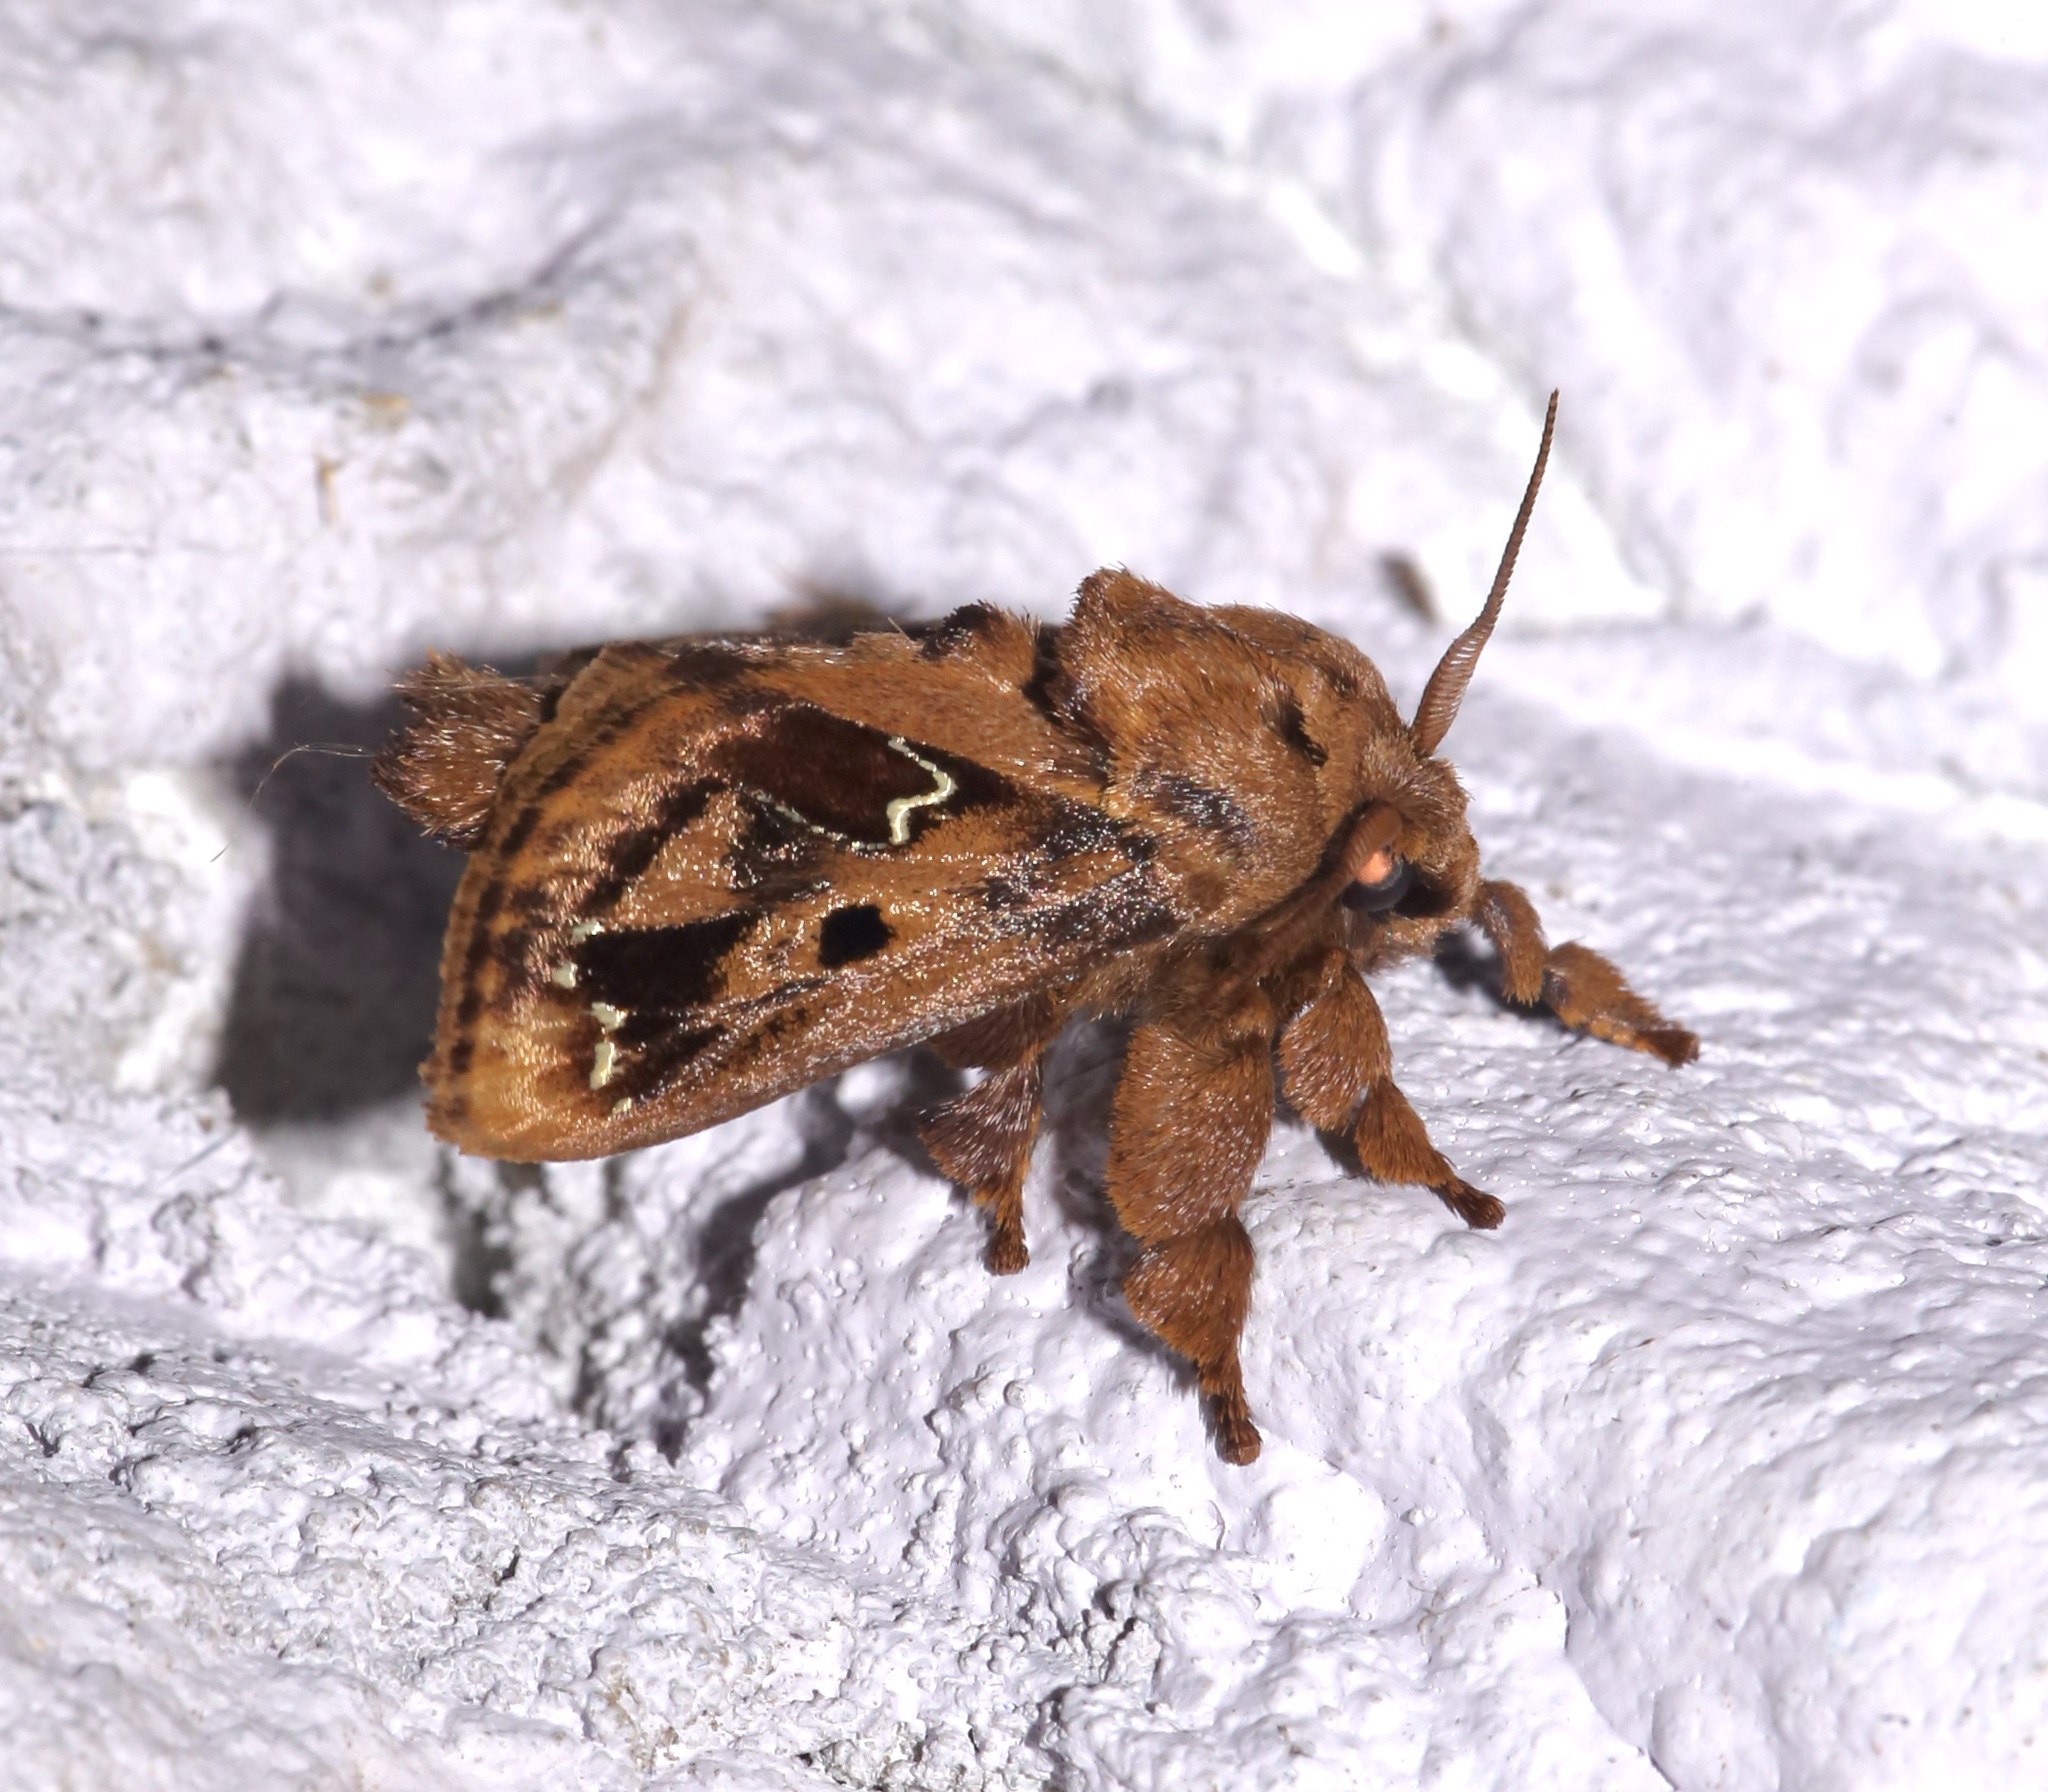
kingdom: Animalia
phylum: Arthropoda
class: Insecta
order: Lepidoptera
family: Limacodidae
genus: Euclea
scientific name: Euclea buscki
